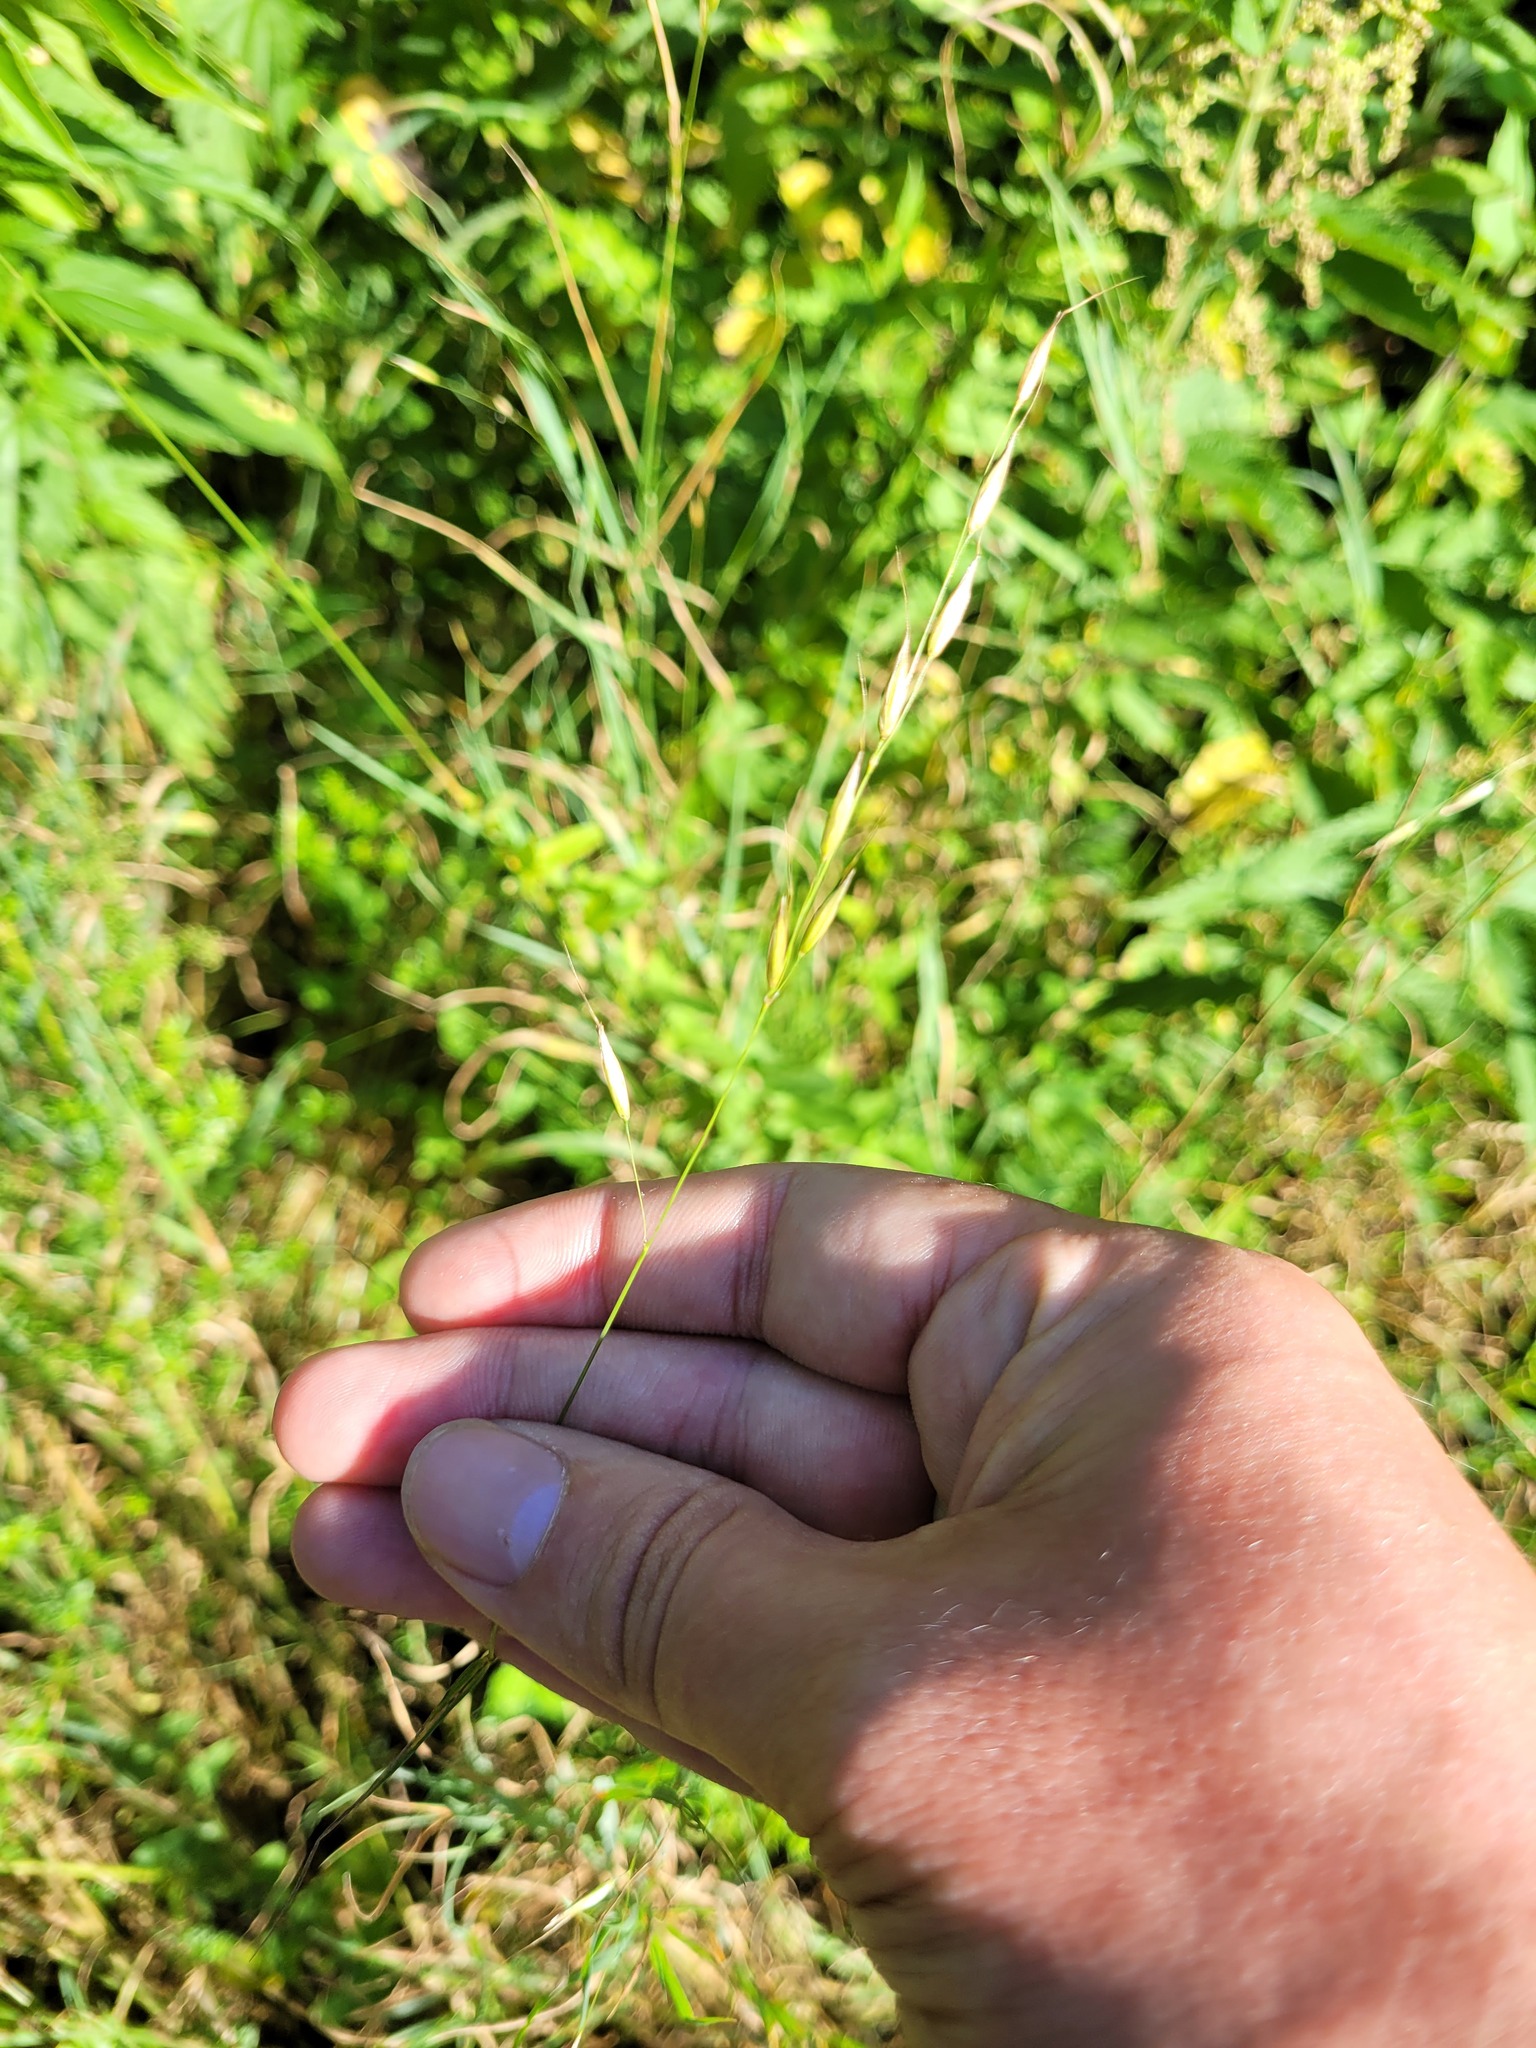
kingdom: Plantae
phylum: Tracheophyta
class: Liliopsida
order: Poales
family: Poaceae
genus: Arrhenatherum
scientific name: Arrhenatherum elatius
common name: Tall oatgrass
